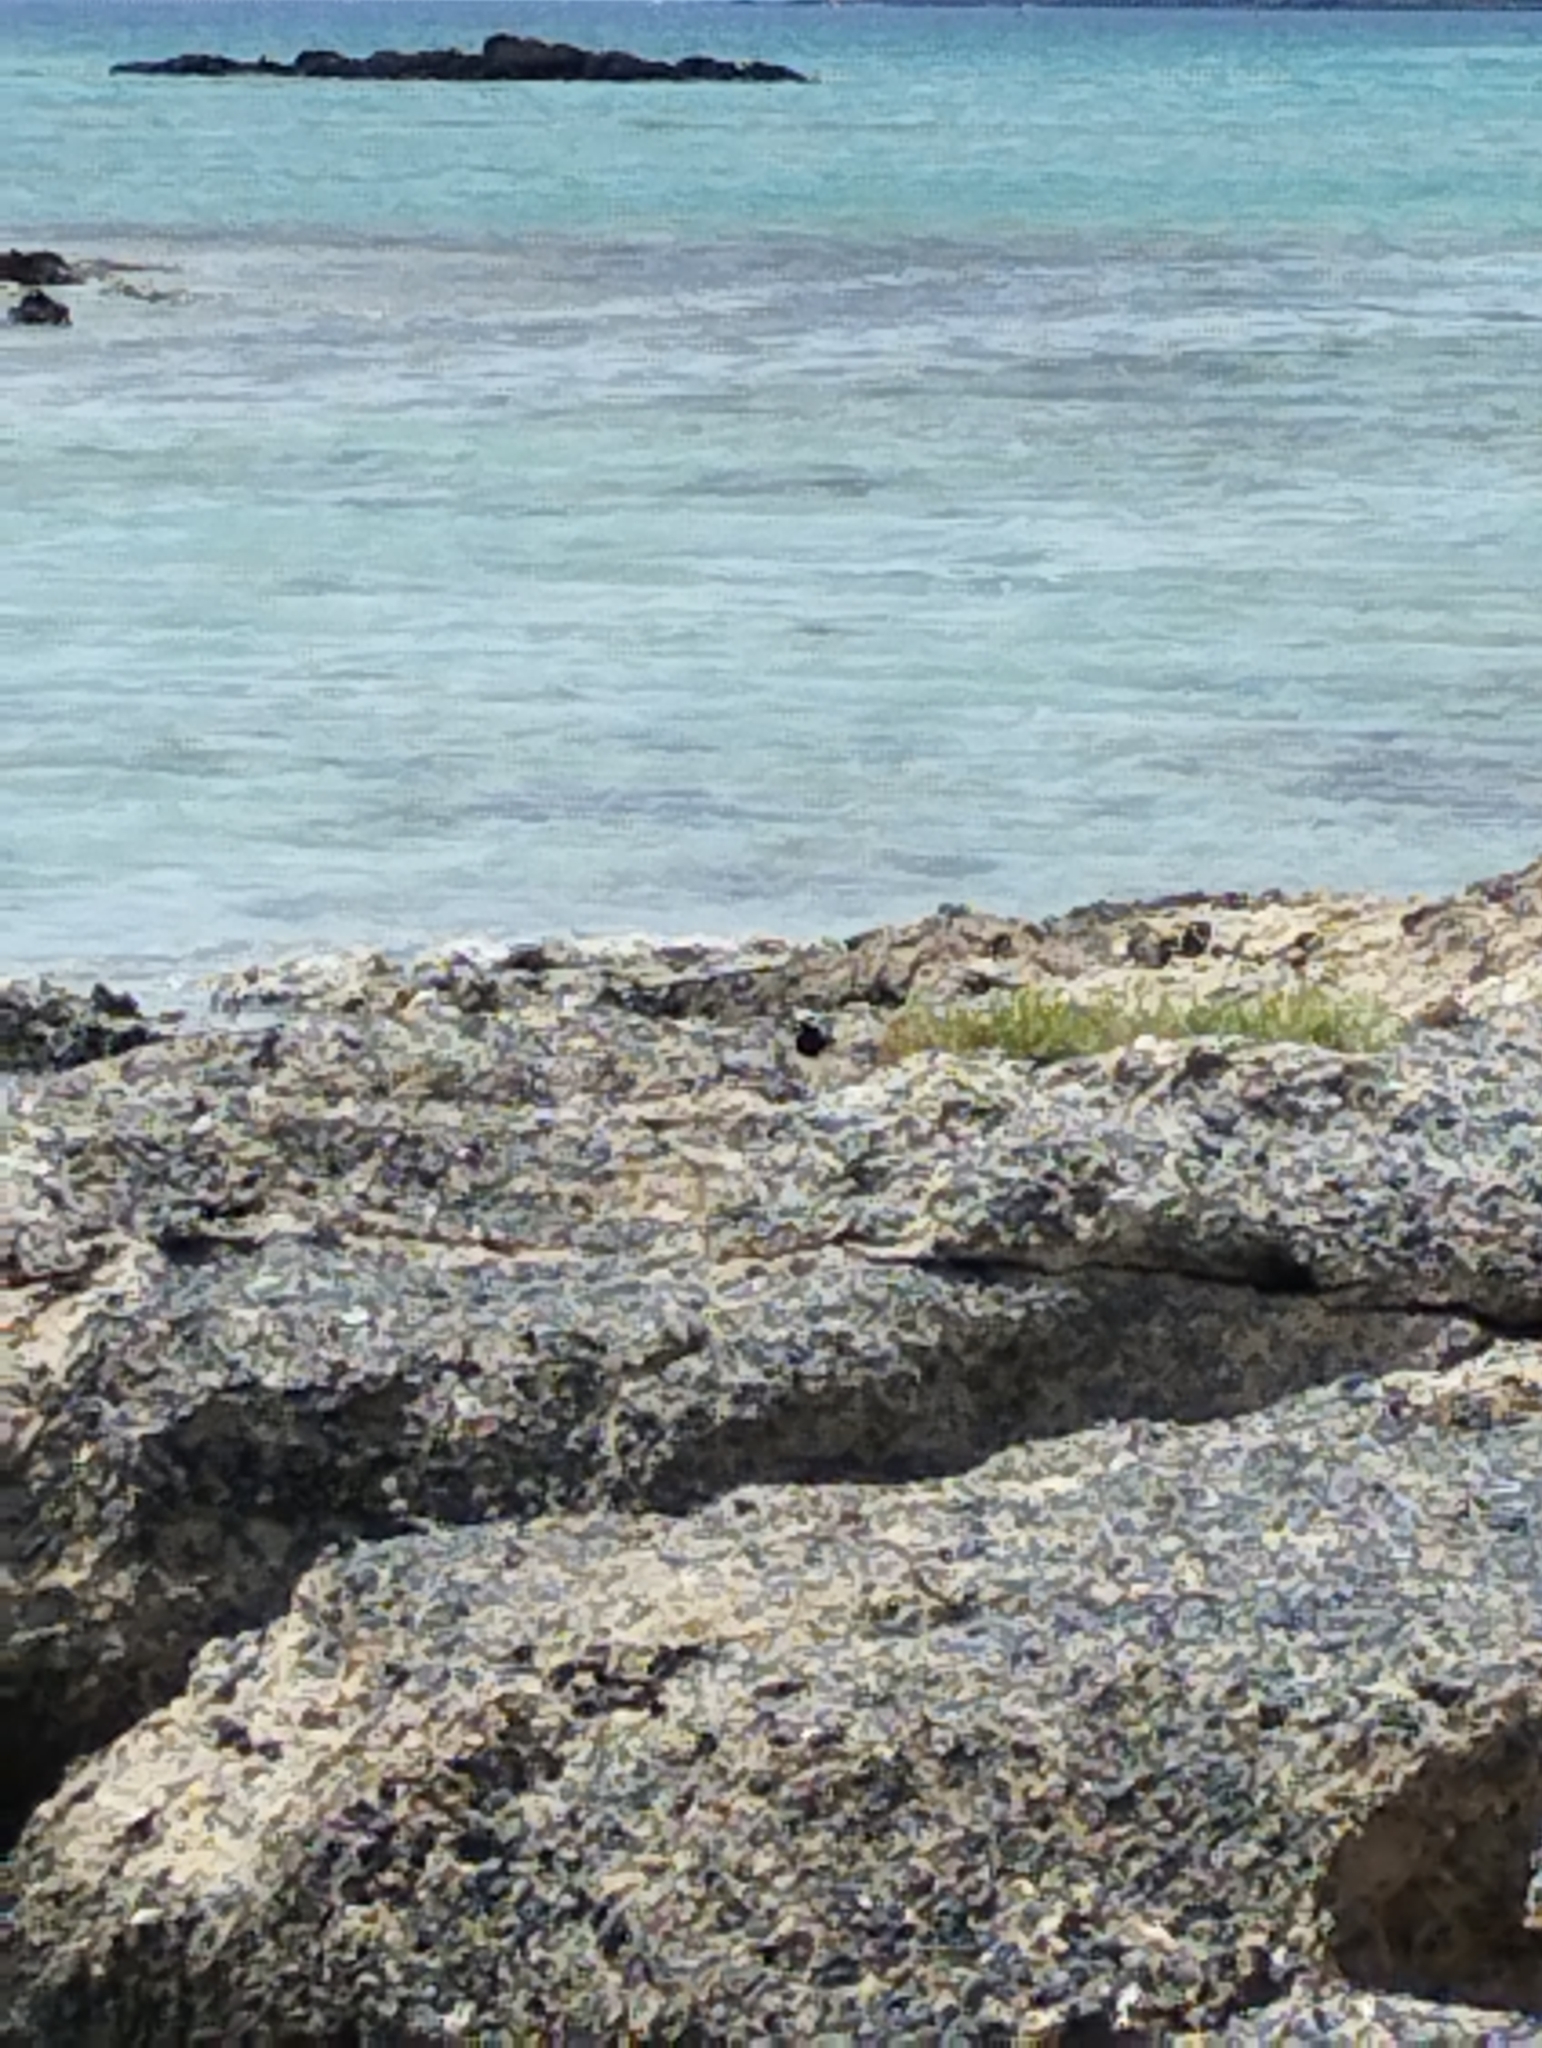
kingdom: Animalia
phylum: Chordata
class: Aves
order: Passeriformes
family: Motacillidae
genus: Motacilla
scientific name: Motacilla alba
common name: White wagtail
